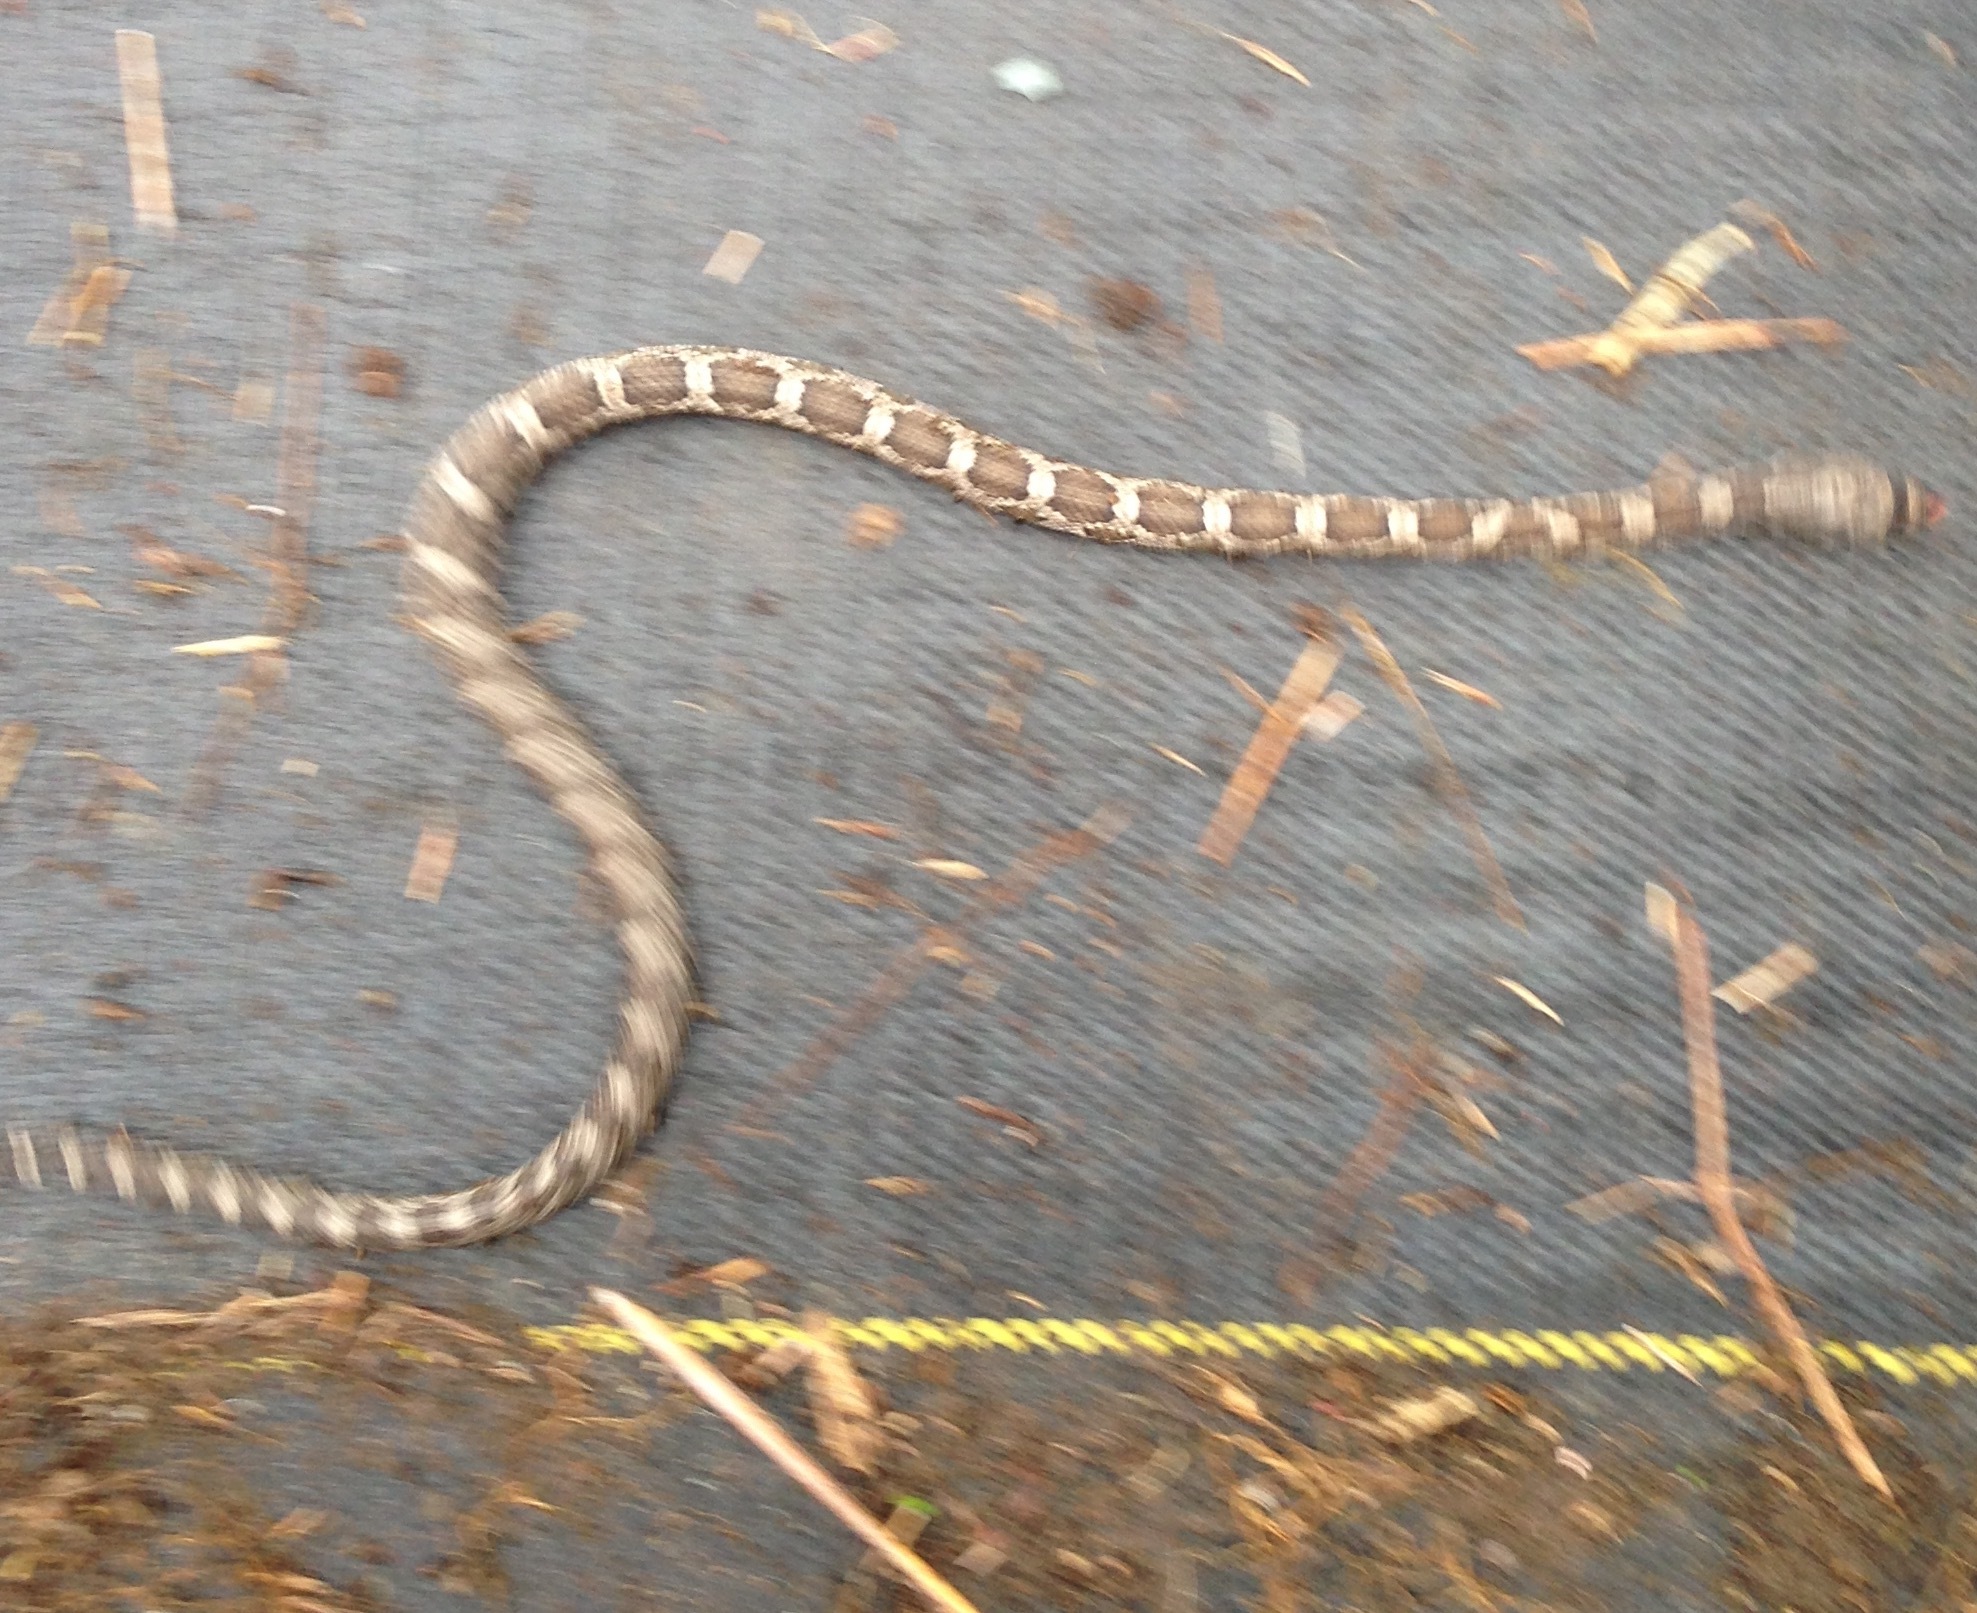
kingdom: Animalia
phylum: Chordata
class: Squamata
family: Colubridae
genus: Pantherophis
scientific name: Pantherophis obsoletus
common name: Black rat snake
